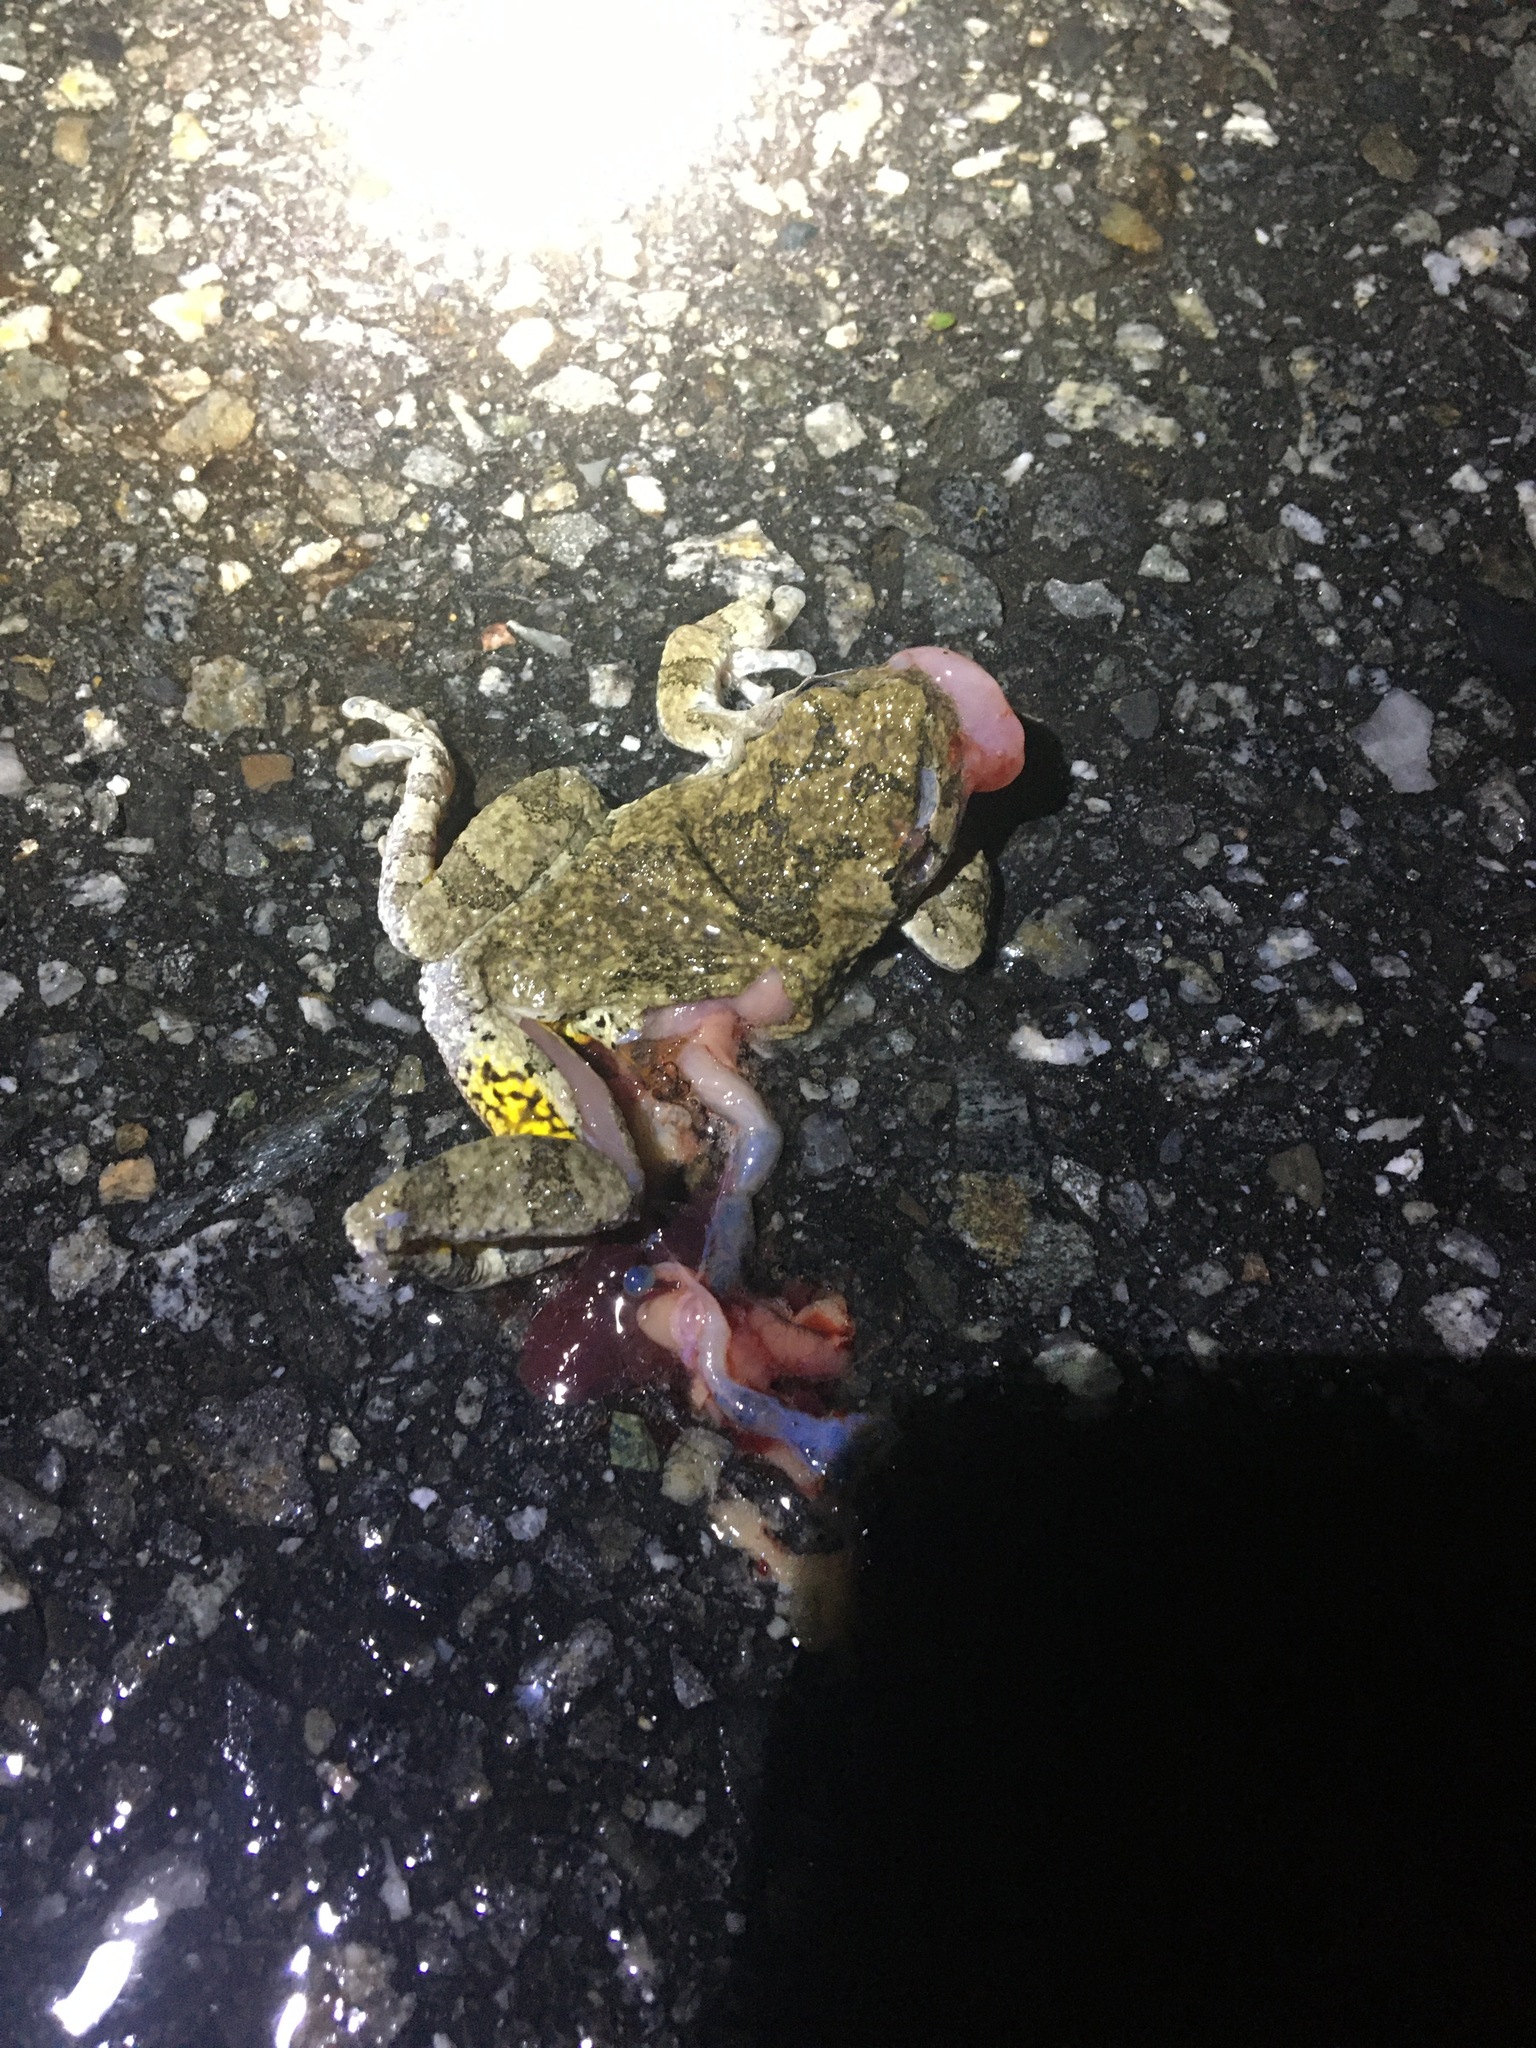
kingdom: Animalia
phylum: Chordata
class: Amphibia
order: Anura
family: Hylidae
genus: Dryophytes
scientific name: Dryophytes versicolor
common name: Gray treefrog
